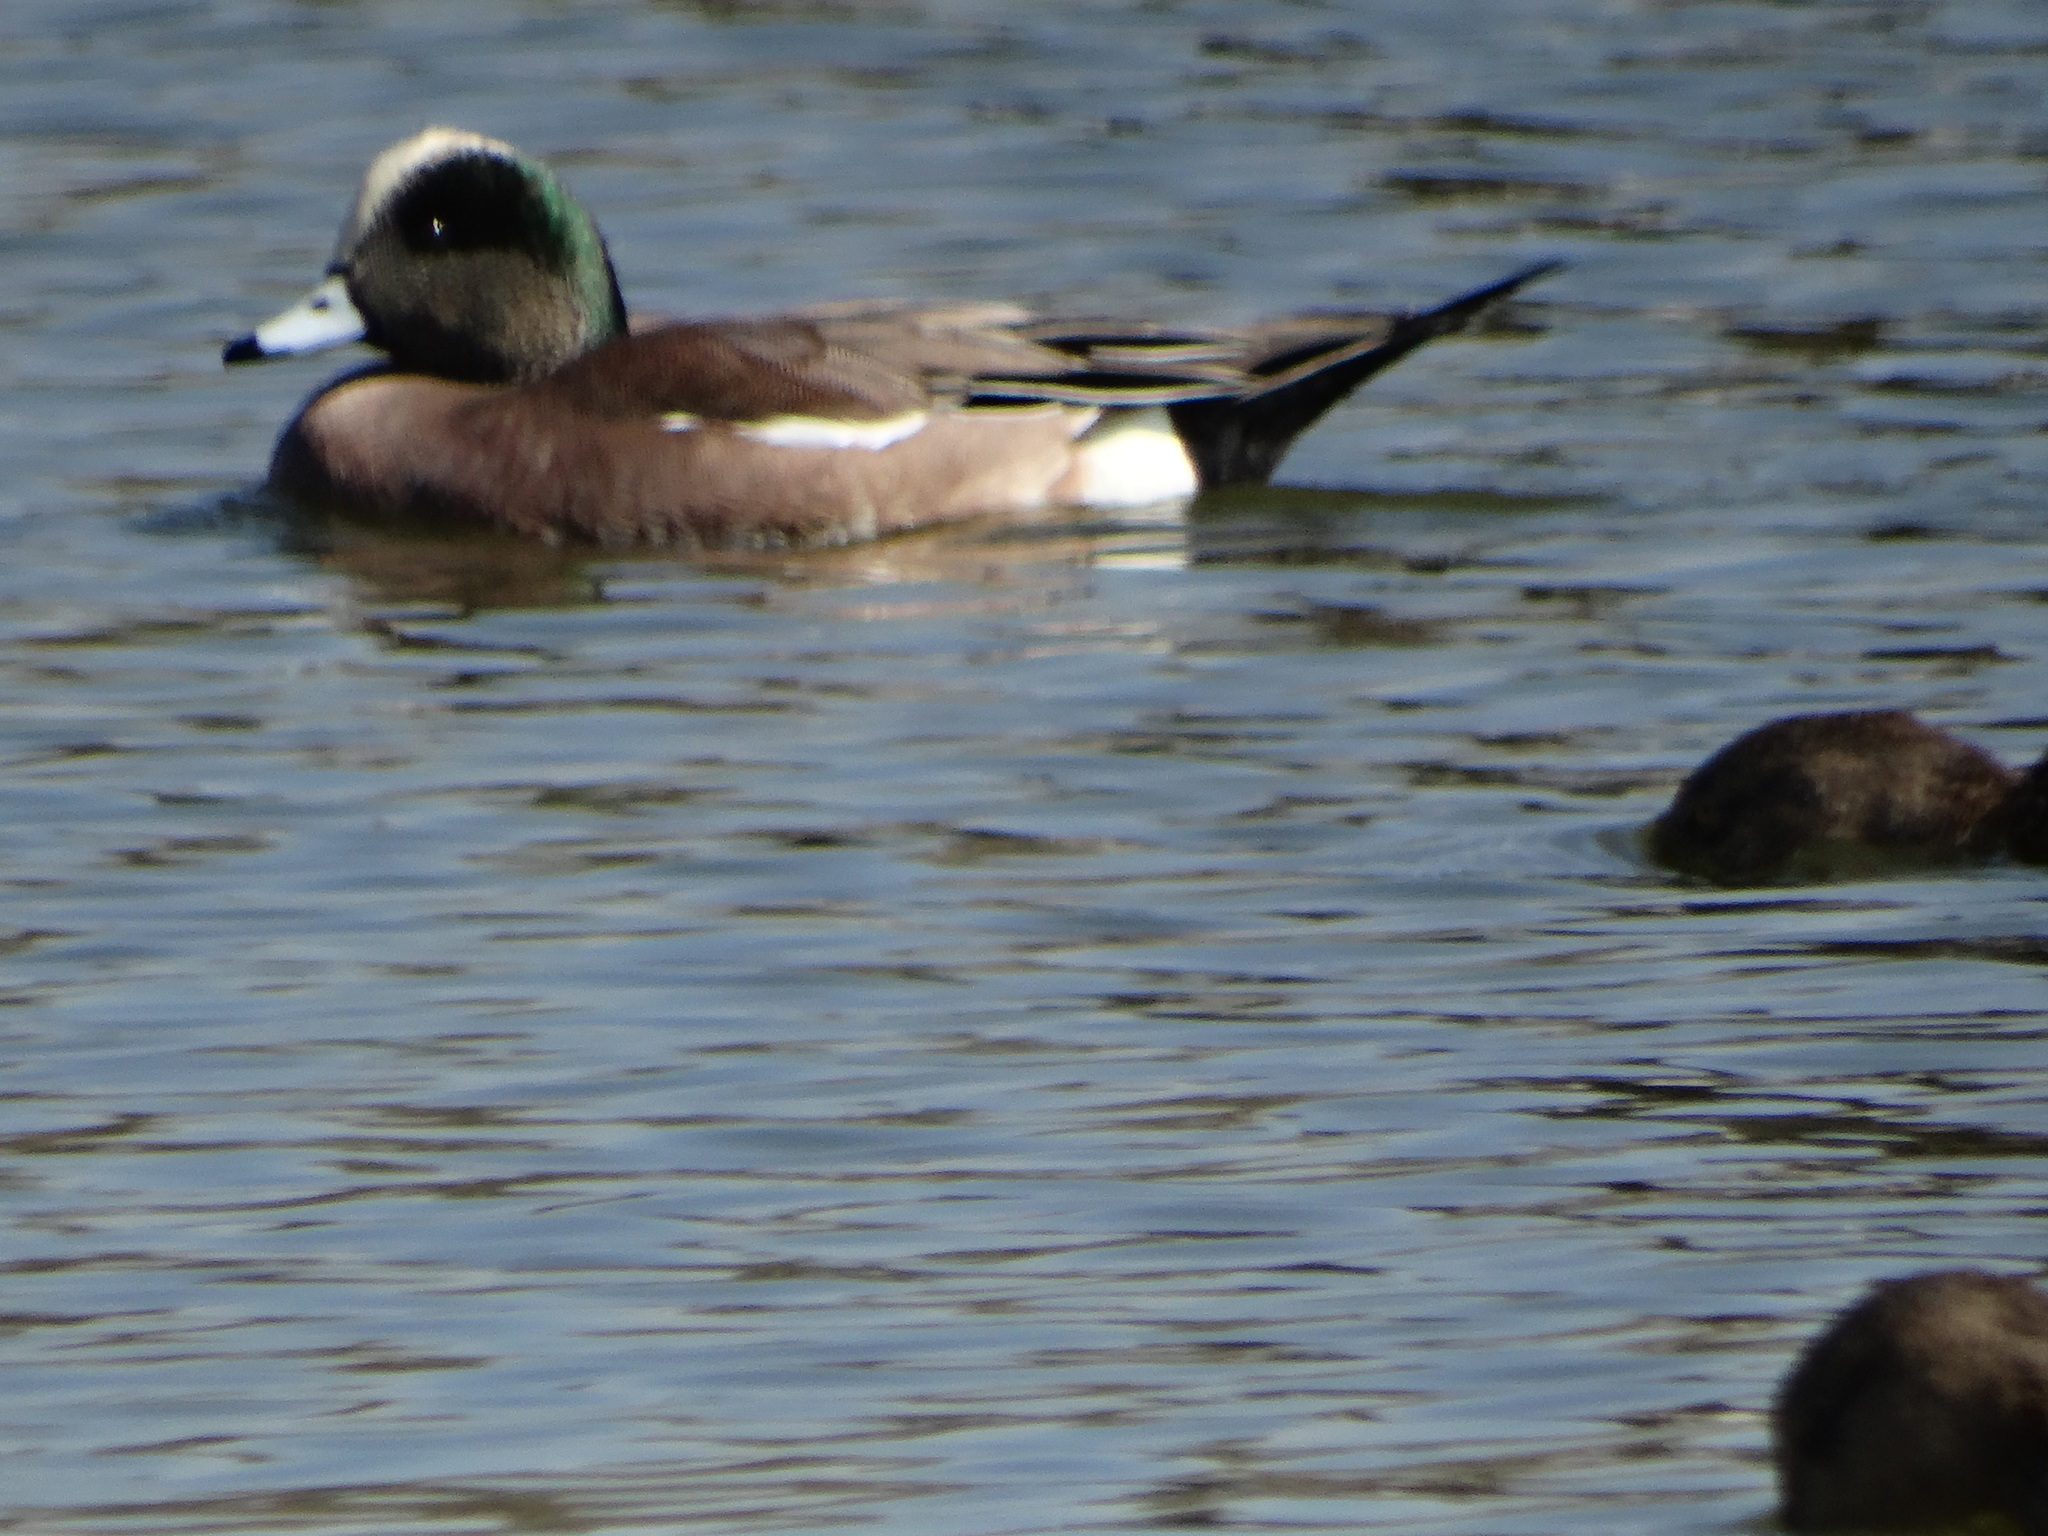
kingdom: Animalia
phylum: Chordata
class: Aves
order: Anseriformes
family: Anatidae
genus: Mareca
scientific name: Mareca americana
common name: American wigeon
